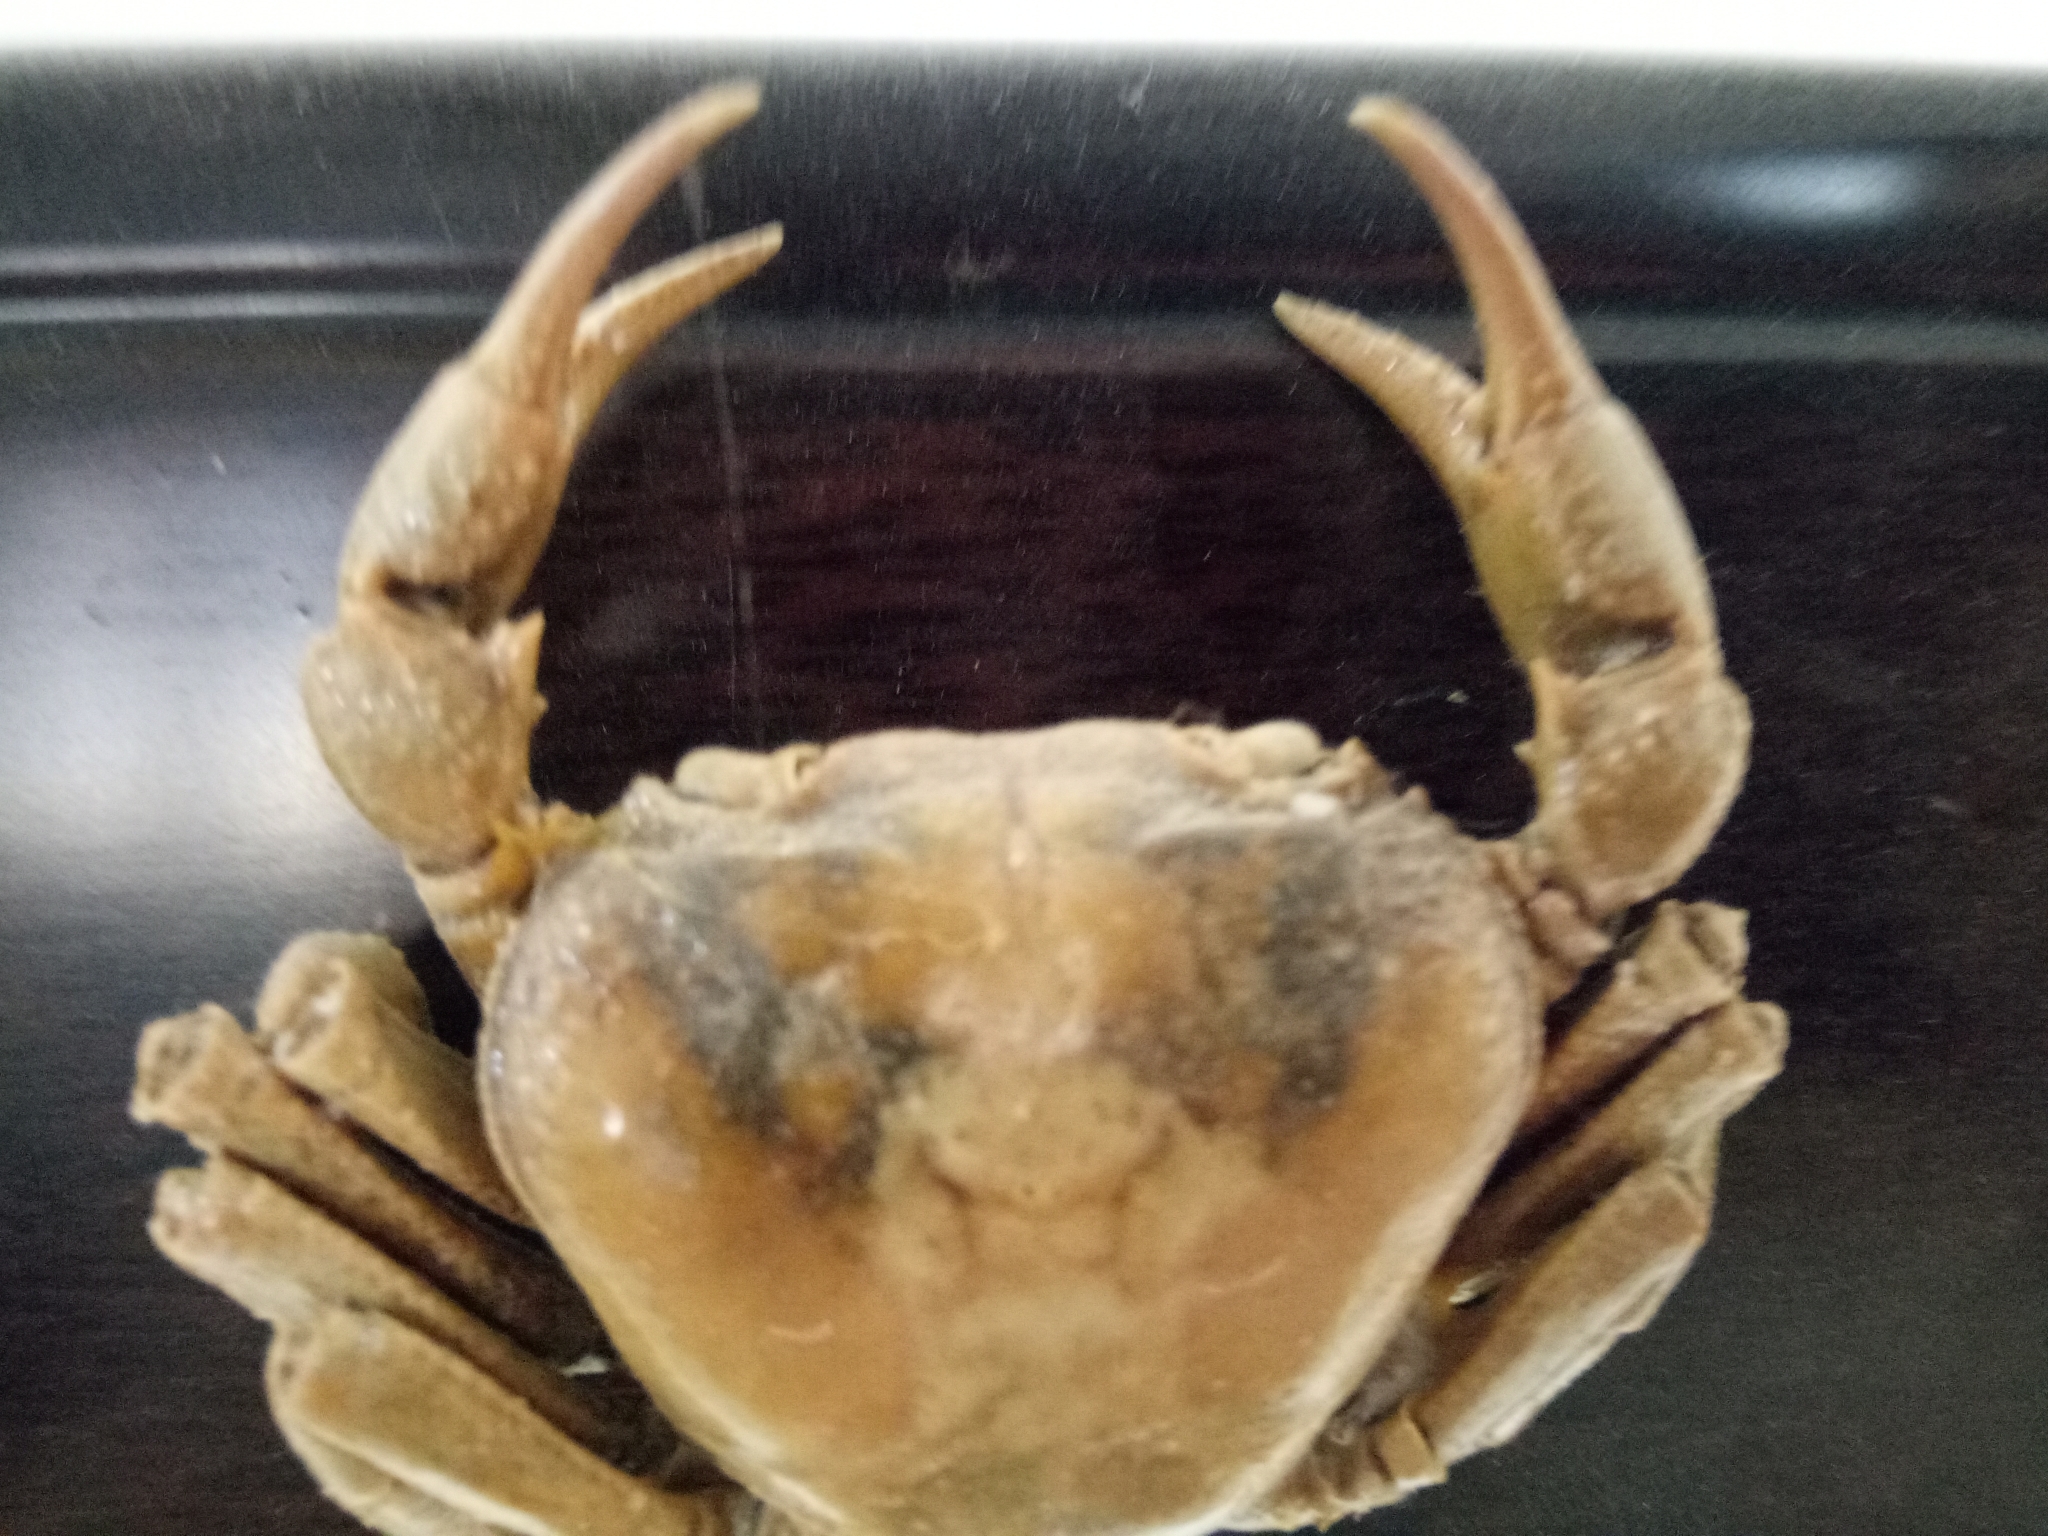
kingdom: Animalia
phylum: Arthropoda
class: Malacostraca
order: Decapoda
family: Potamidae
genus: Potamon
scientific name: Potamon algeriense
